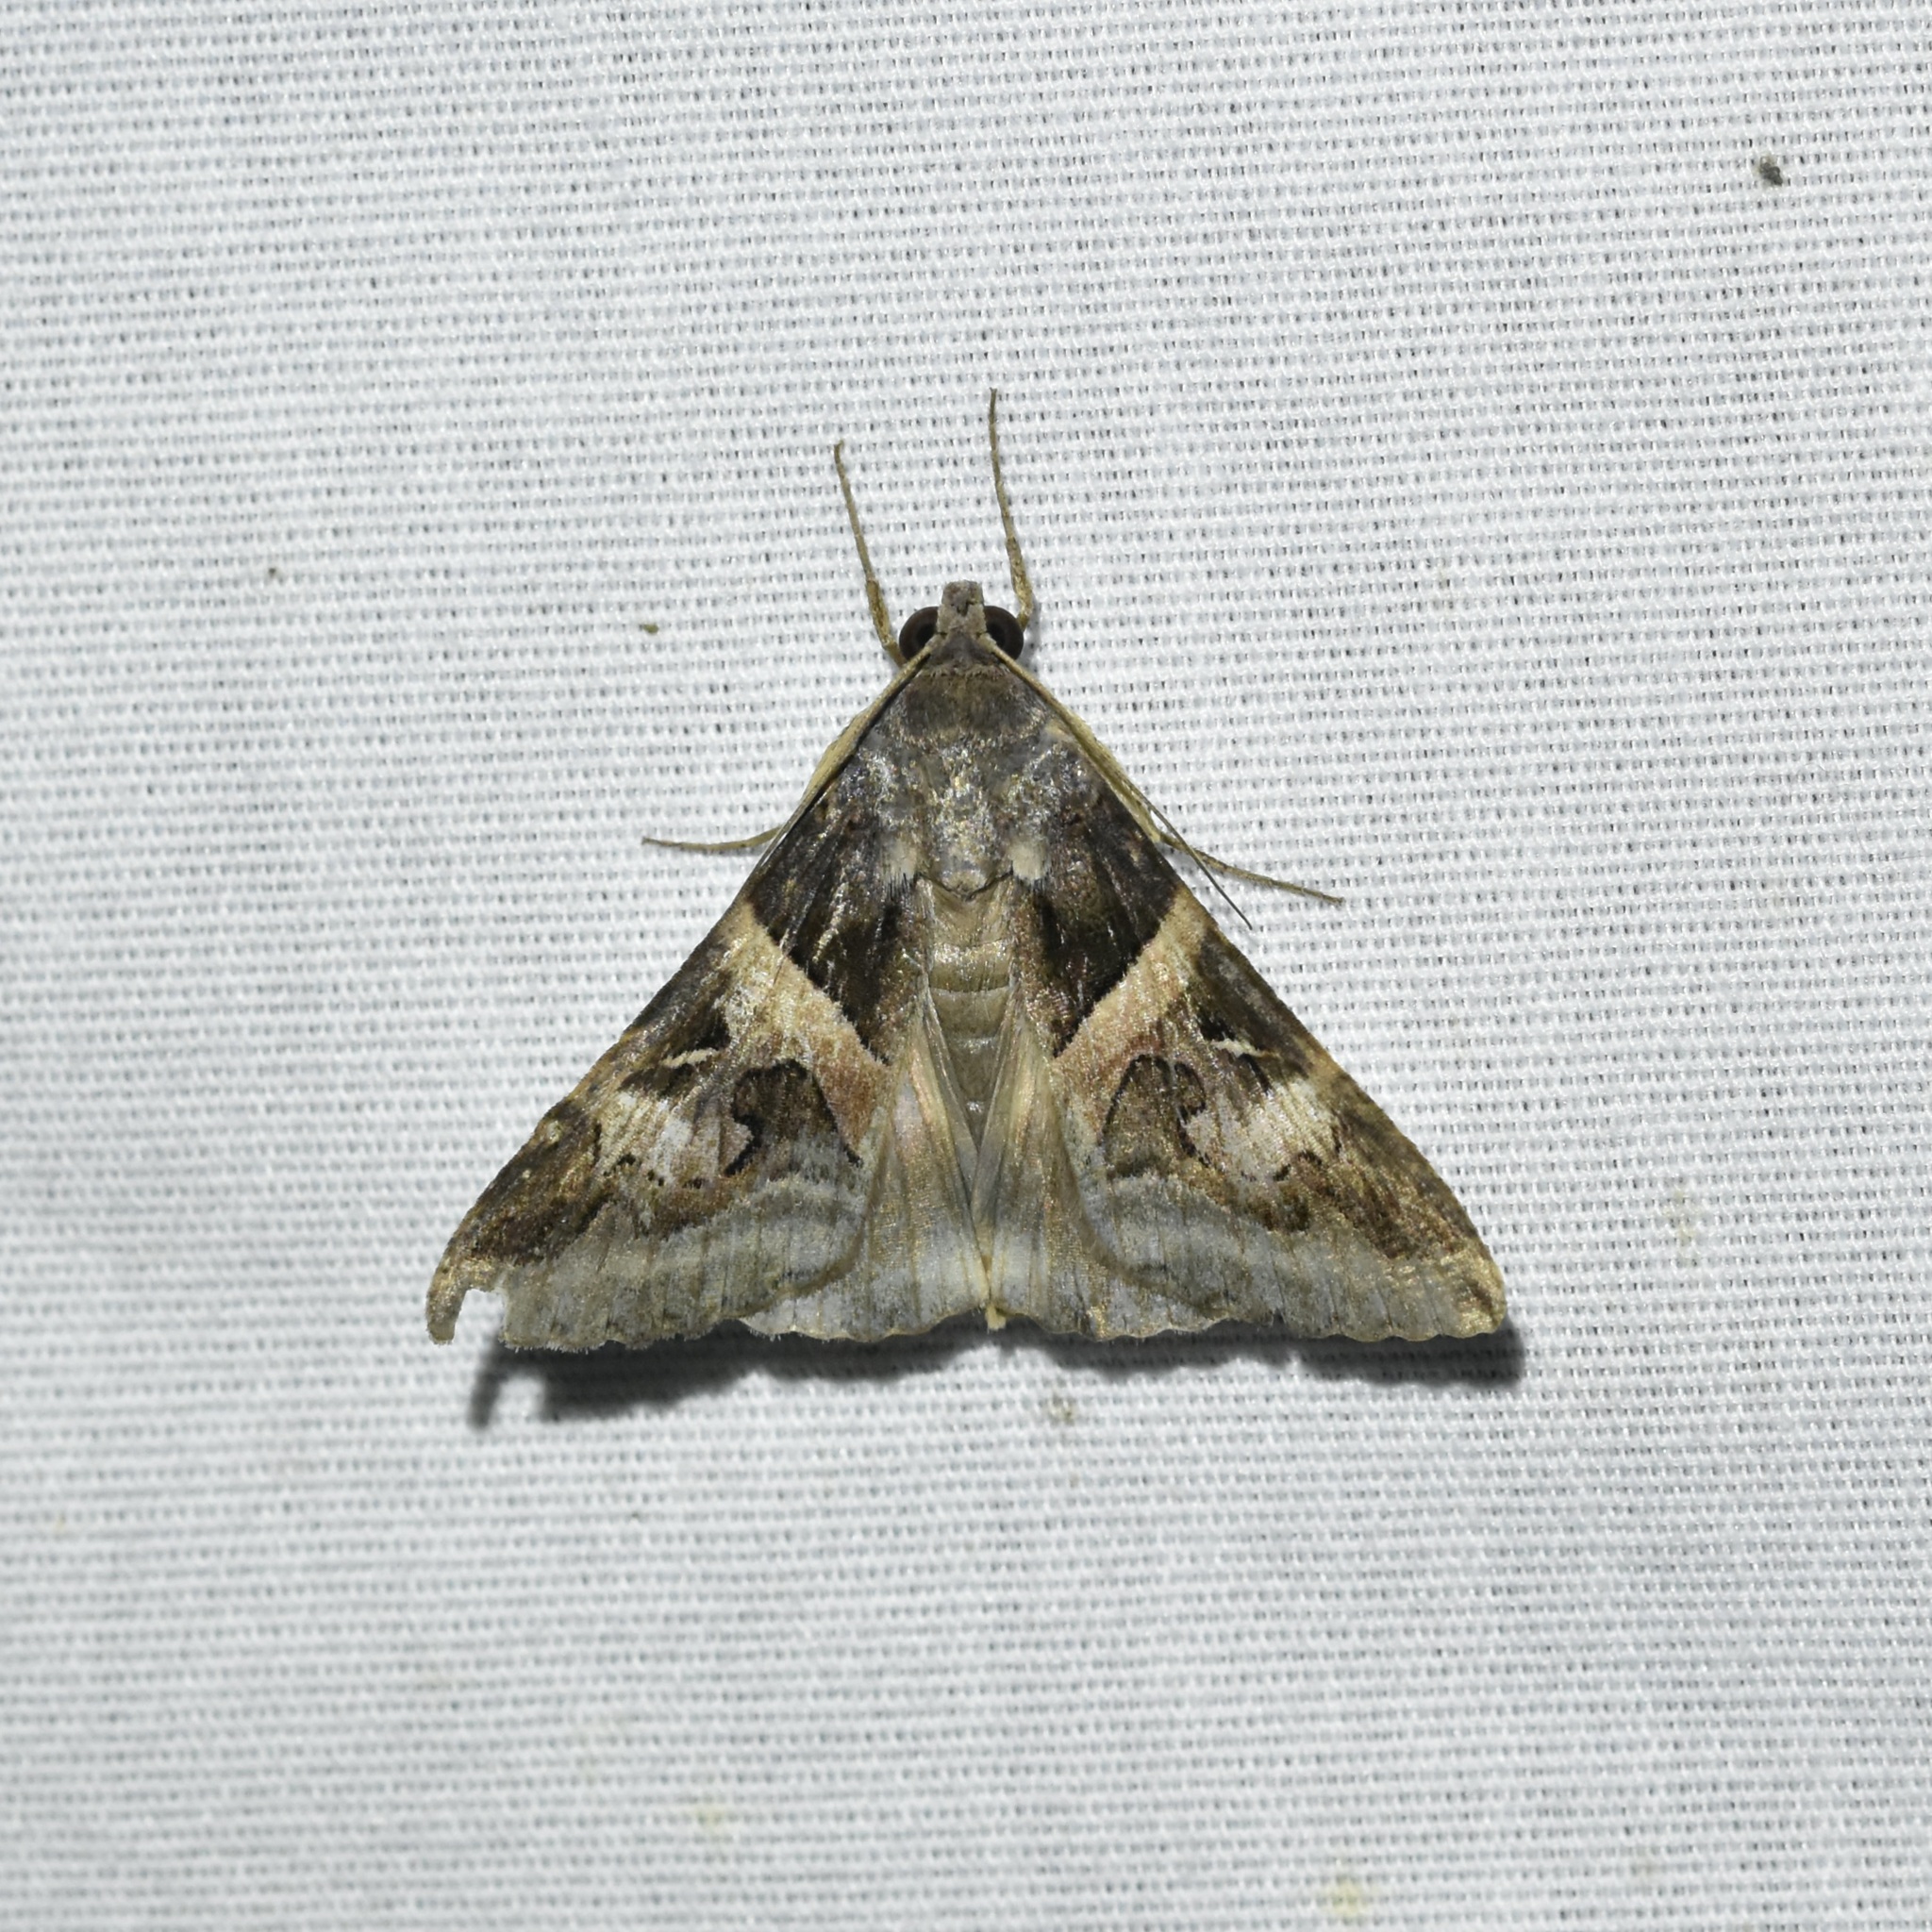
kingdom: Animalia
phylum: Arthropoda
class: Insecta
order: Lepidoptera
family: Erebidae
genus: Melipotis
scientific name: Melipotis indomita
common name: Moth
